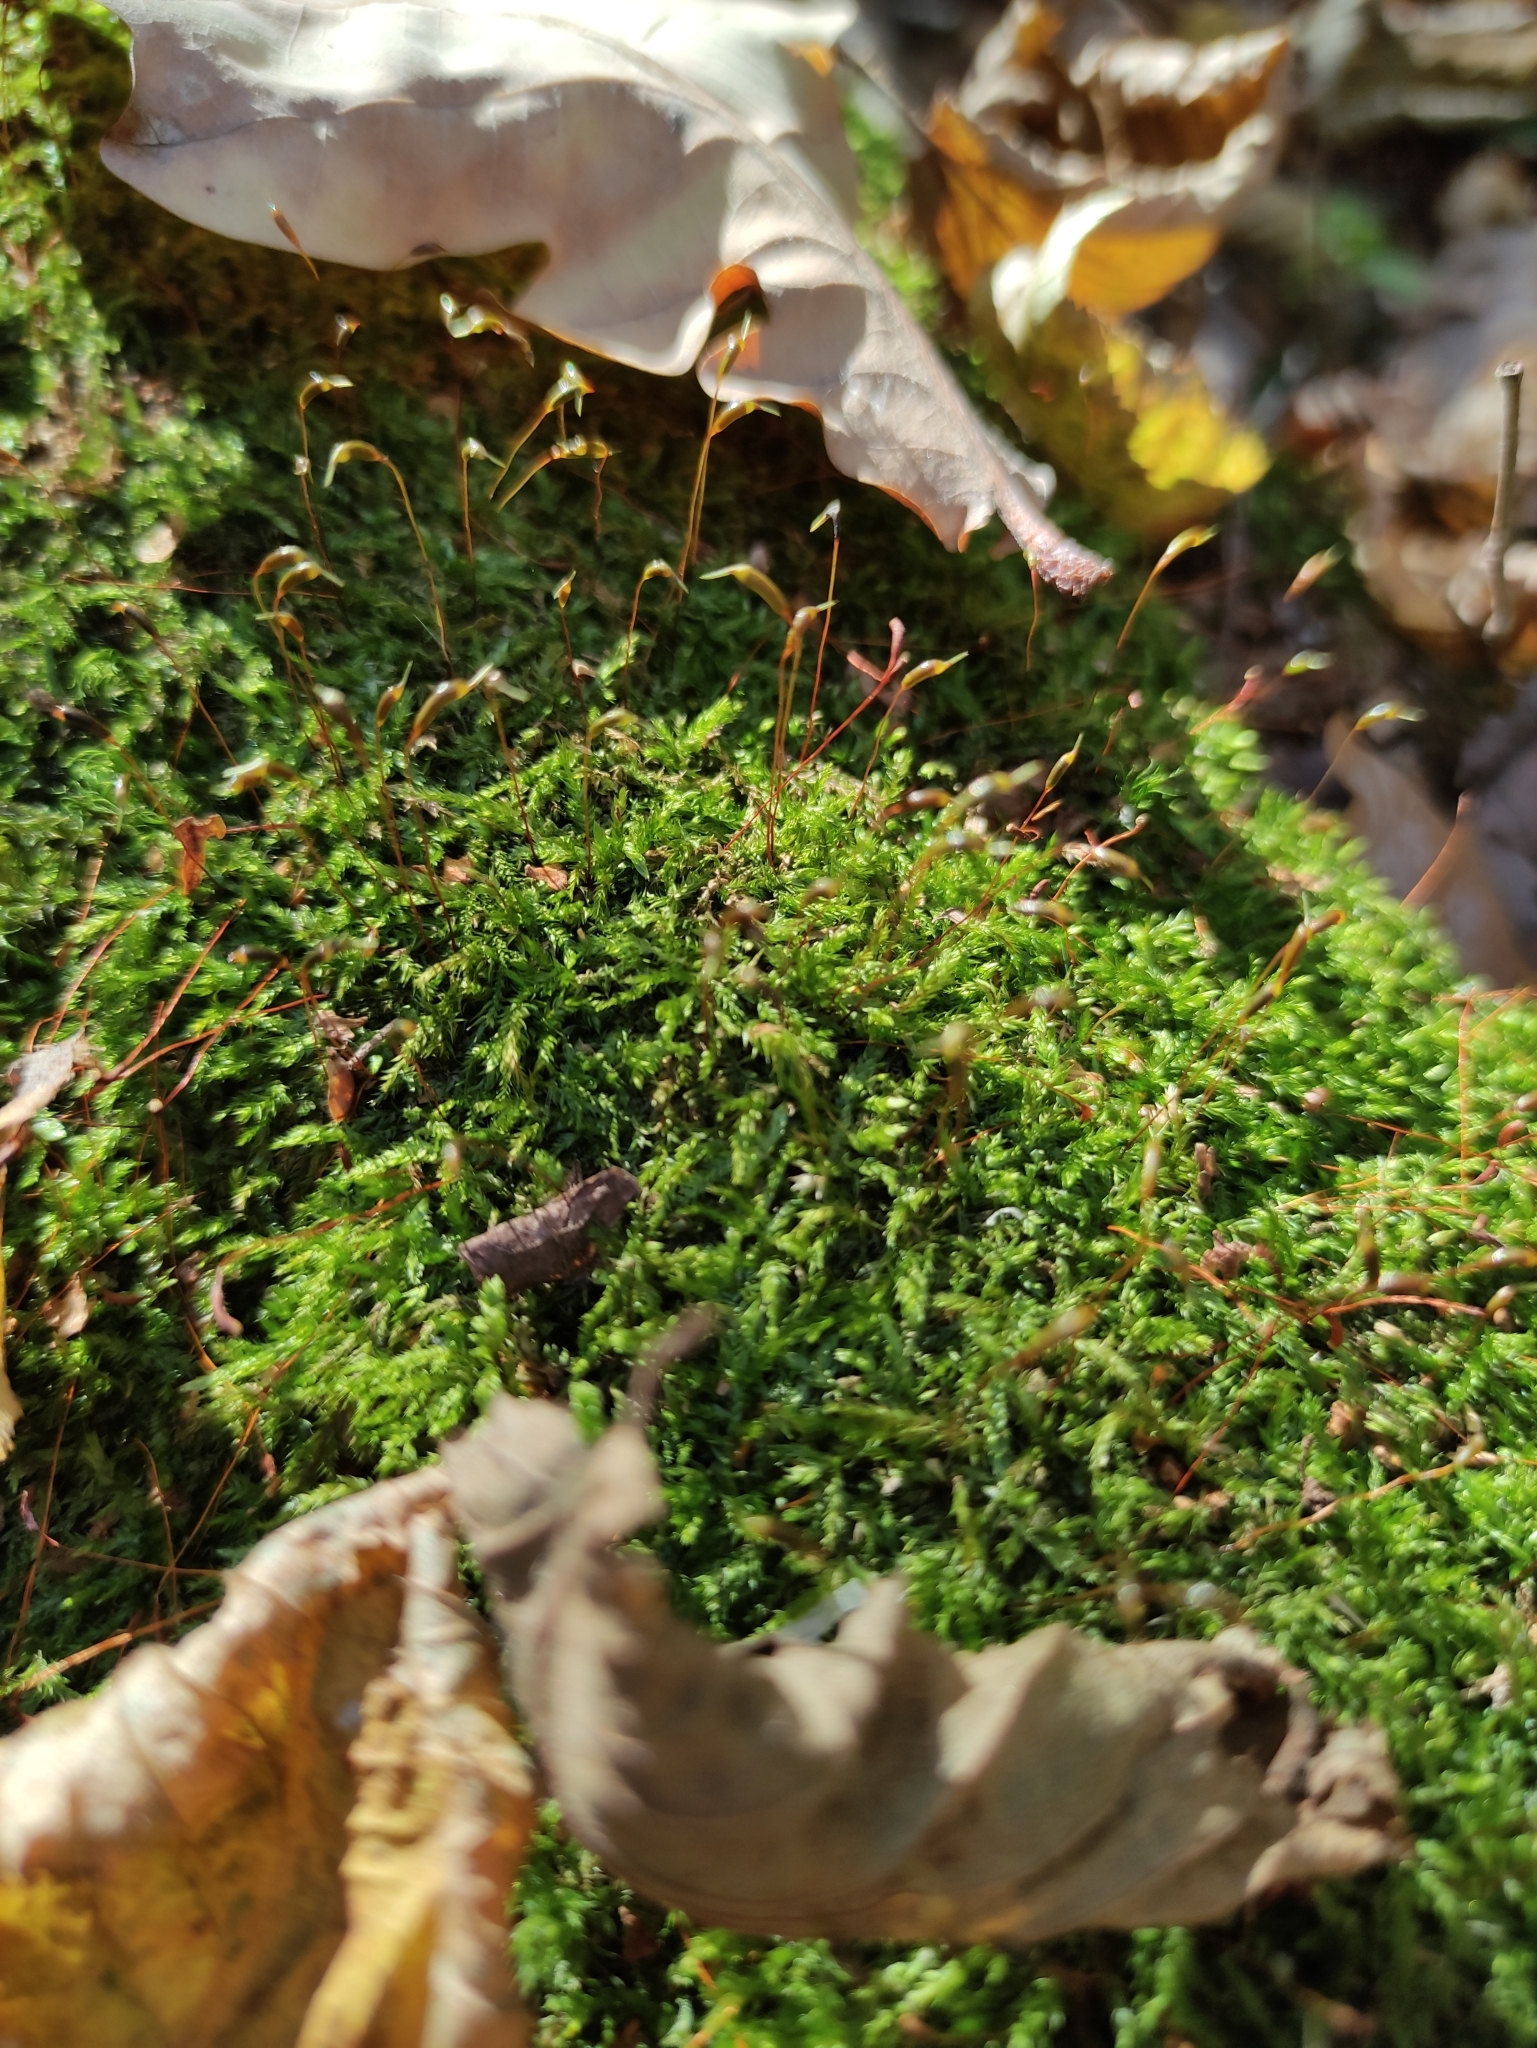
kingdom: Plantae
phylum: Bryophyta
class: Bryopsida
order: Hypnales
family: Callicladiaceae
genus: Callicladium
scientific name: Callicladium haldanianum
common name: Beautiful branch moss
